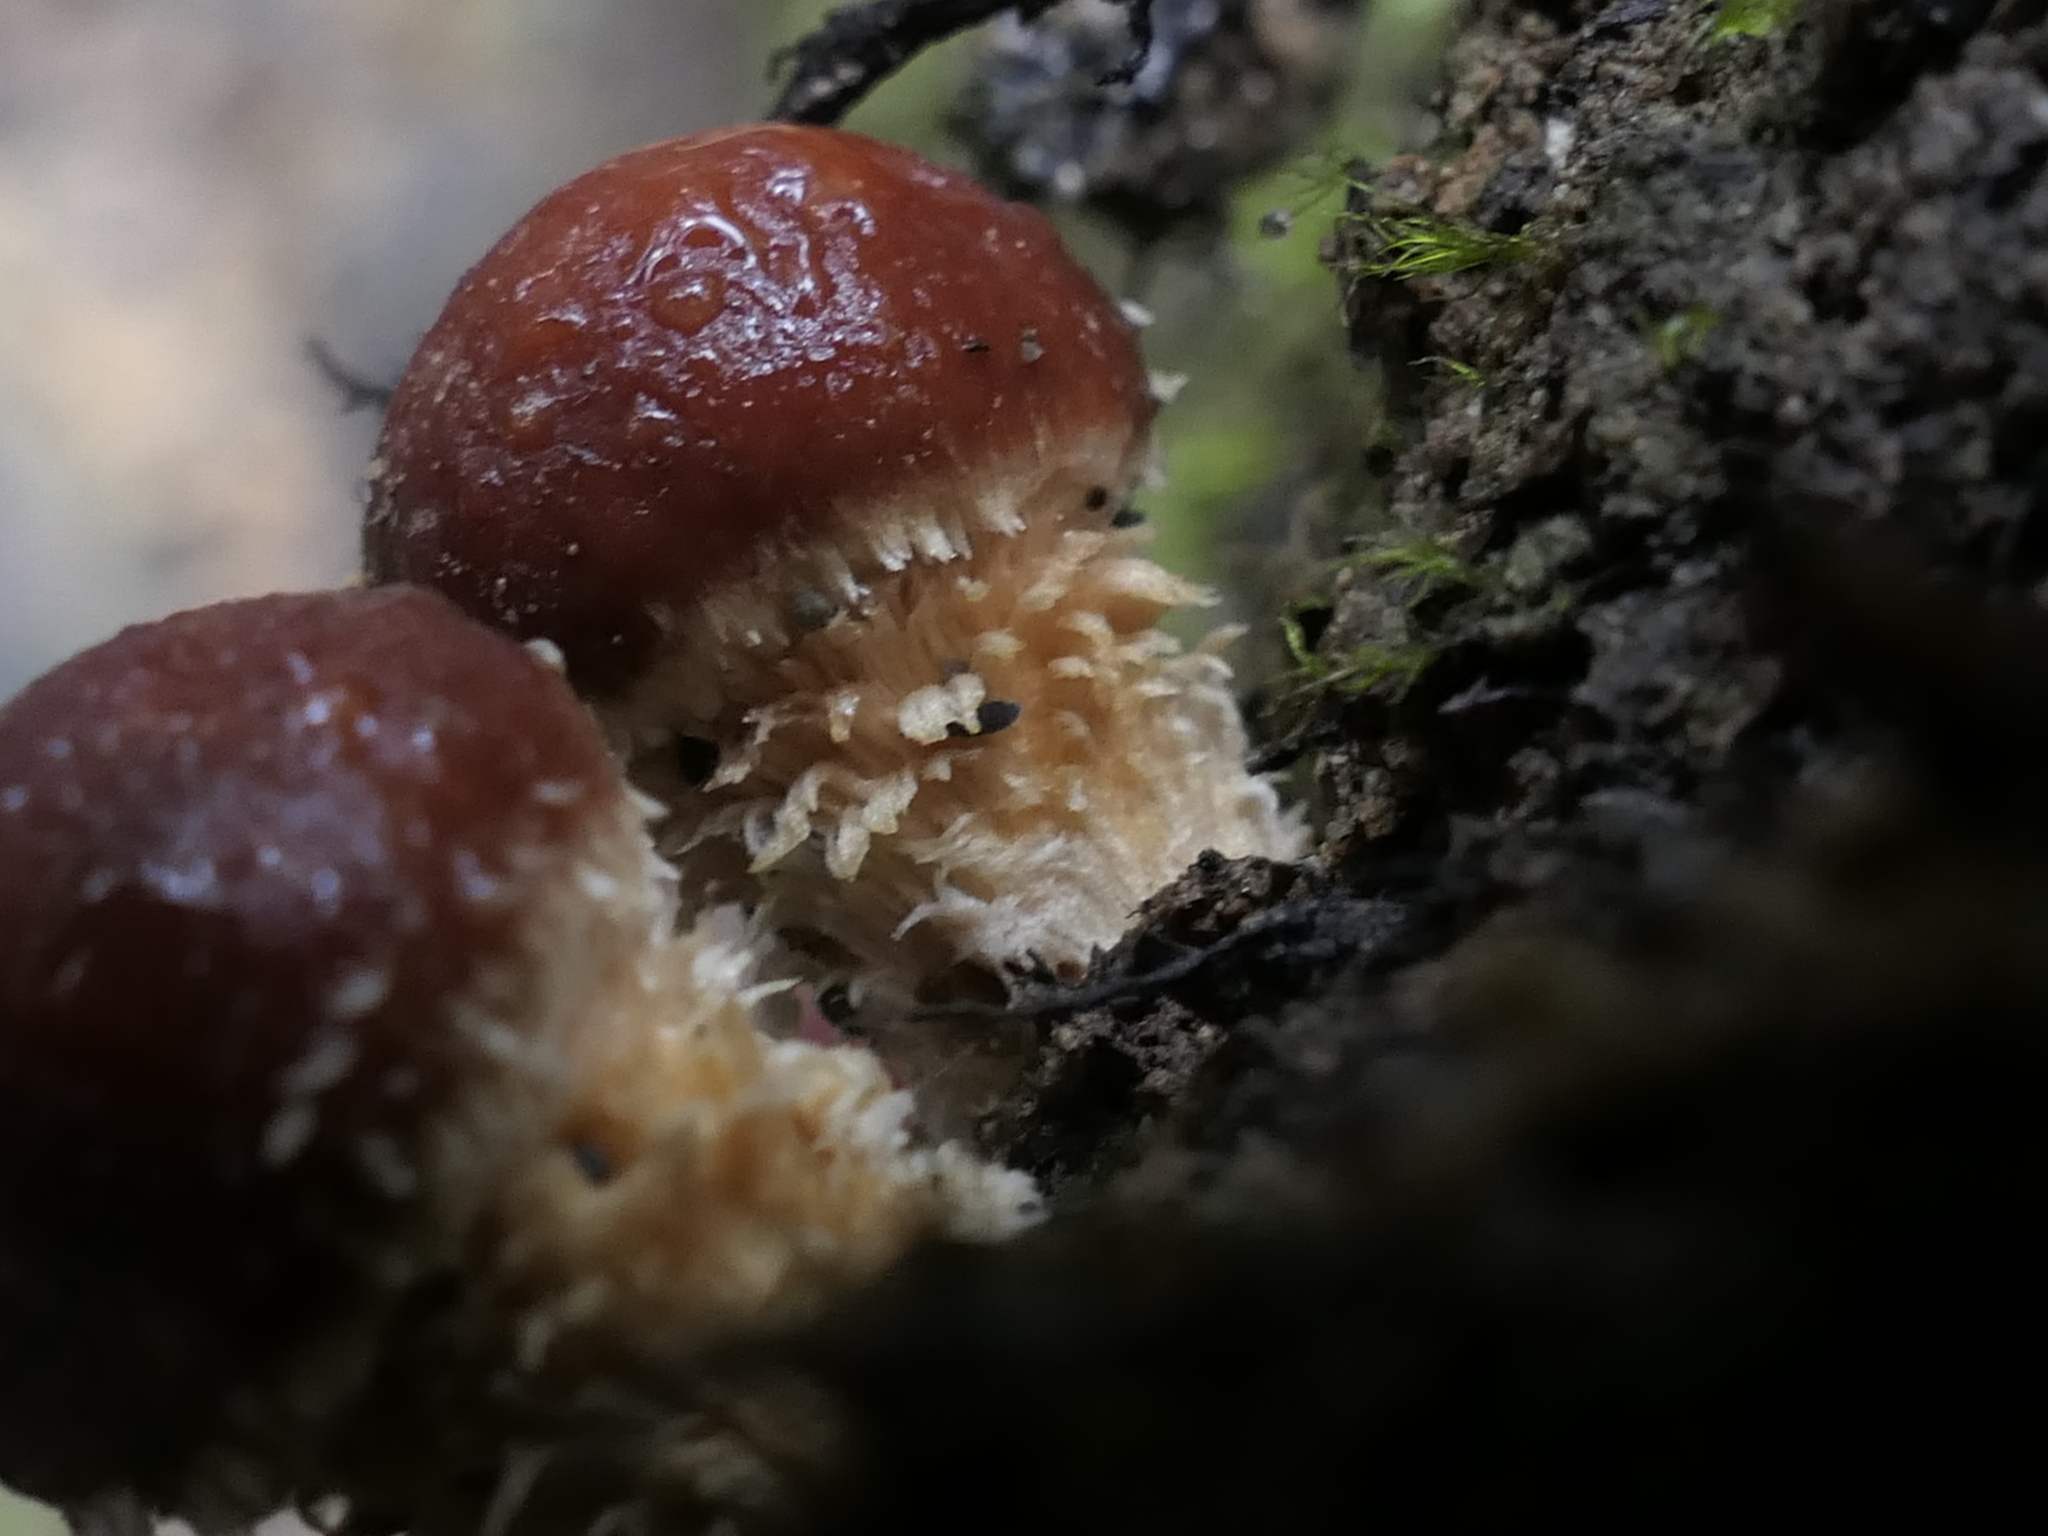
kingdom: Fungi
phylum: Basidiomycota
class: Agaricomycetes
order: Agaricales
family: Strophariaceae
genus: Hypholoma
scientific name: Hypholoma australianum
